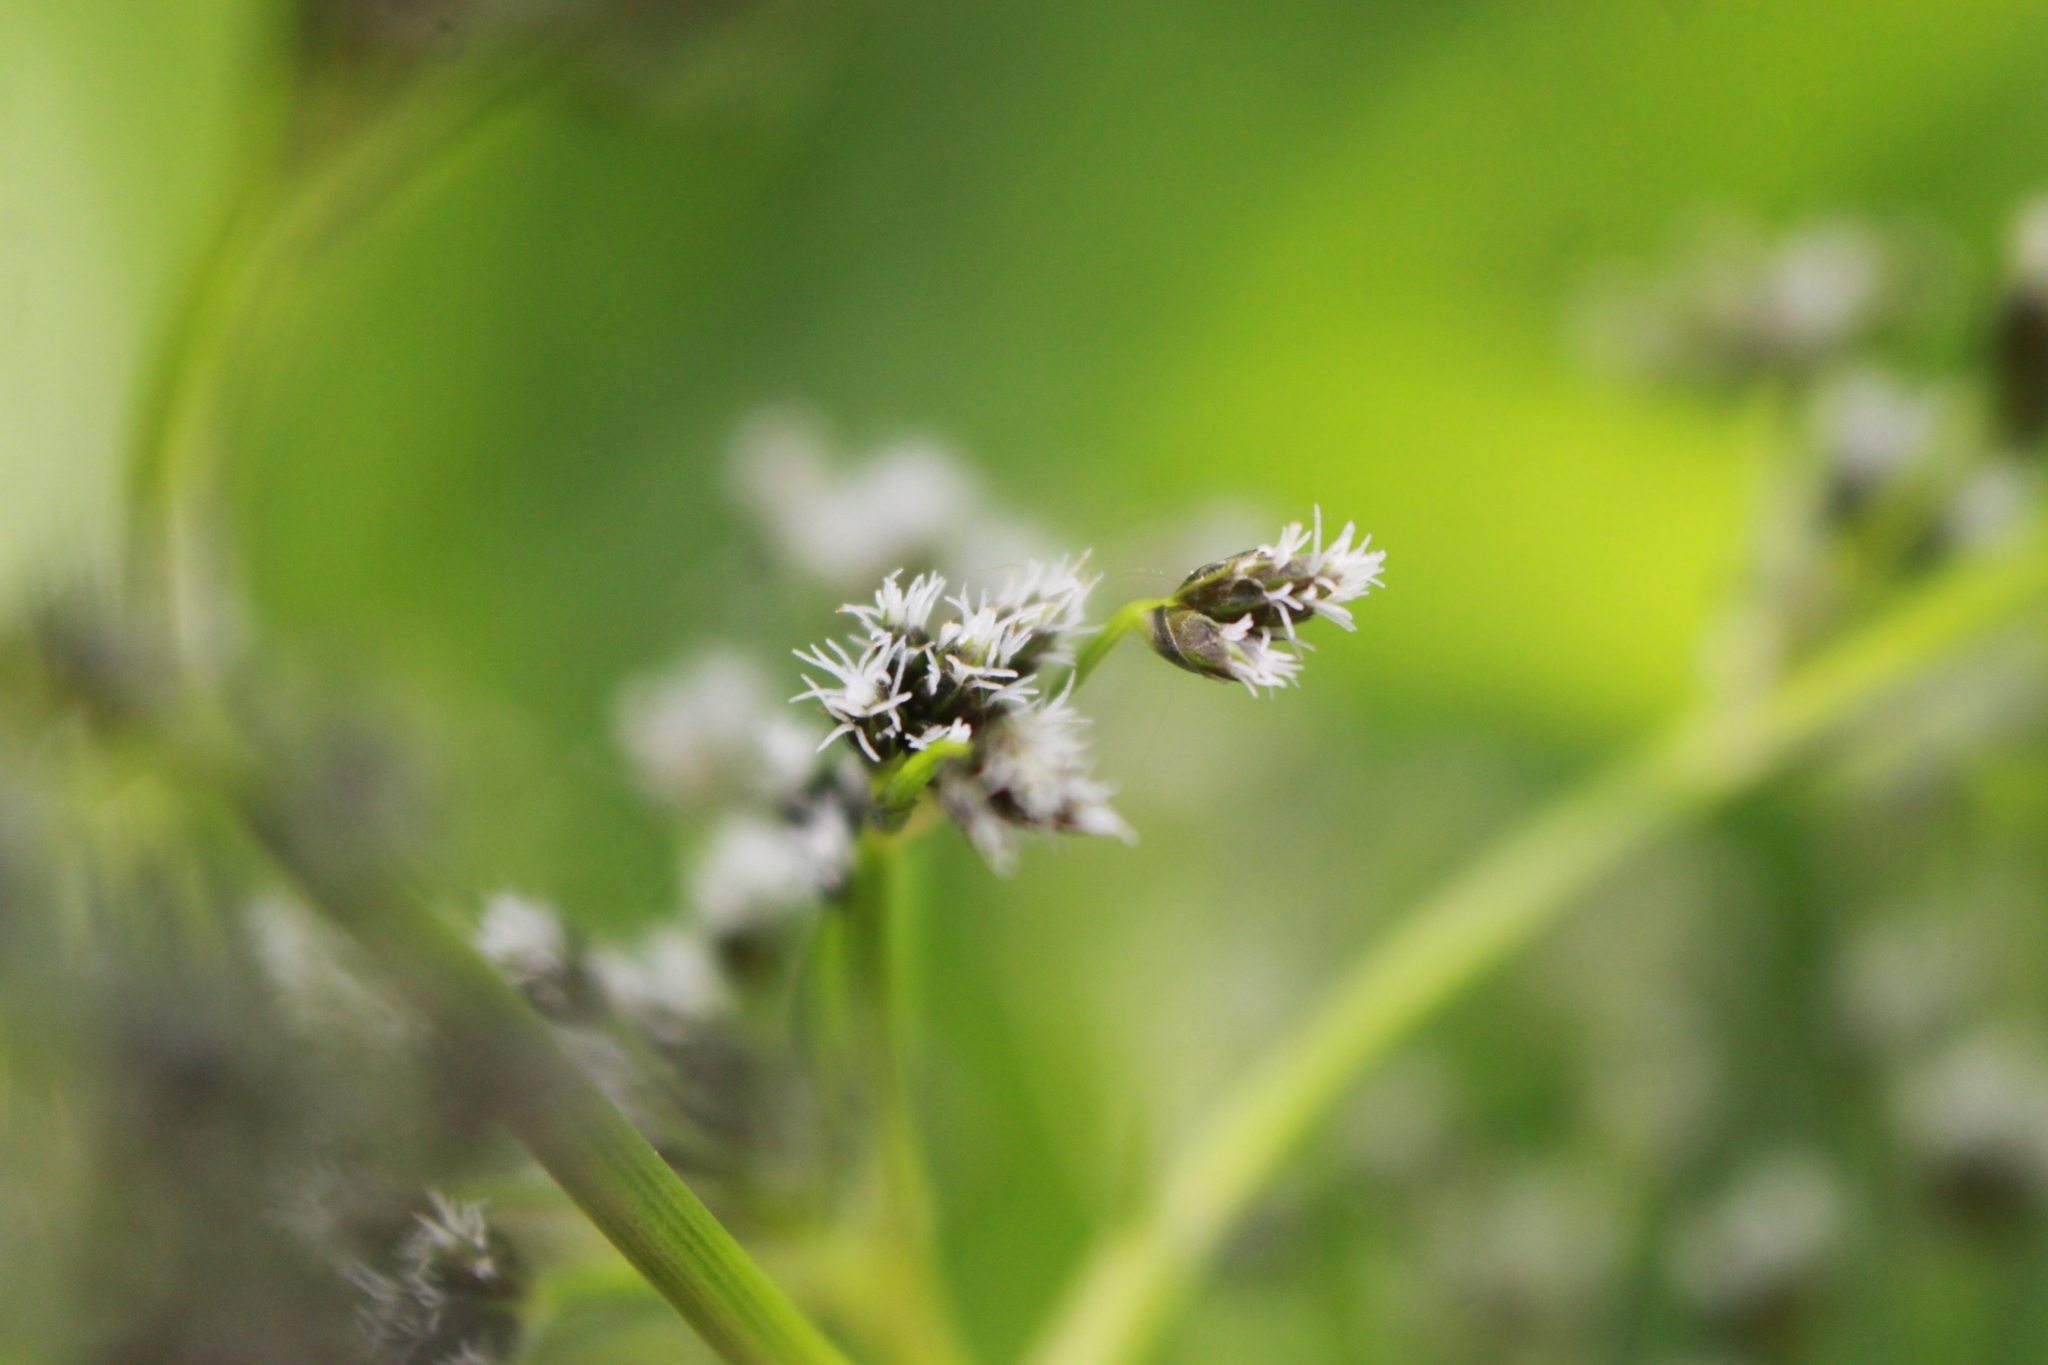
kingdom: Plantae
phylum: Tracheophyta
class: Liliopsida
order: Poales
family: Cyperaceae
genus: Scirpus
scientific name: Scirpus sylvaticus
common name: Wood club-rush
